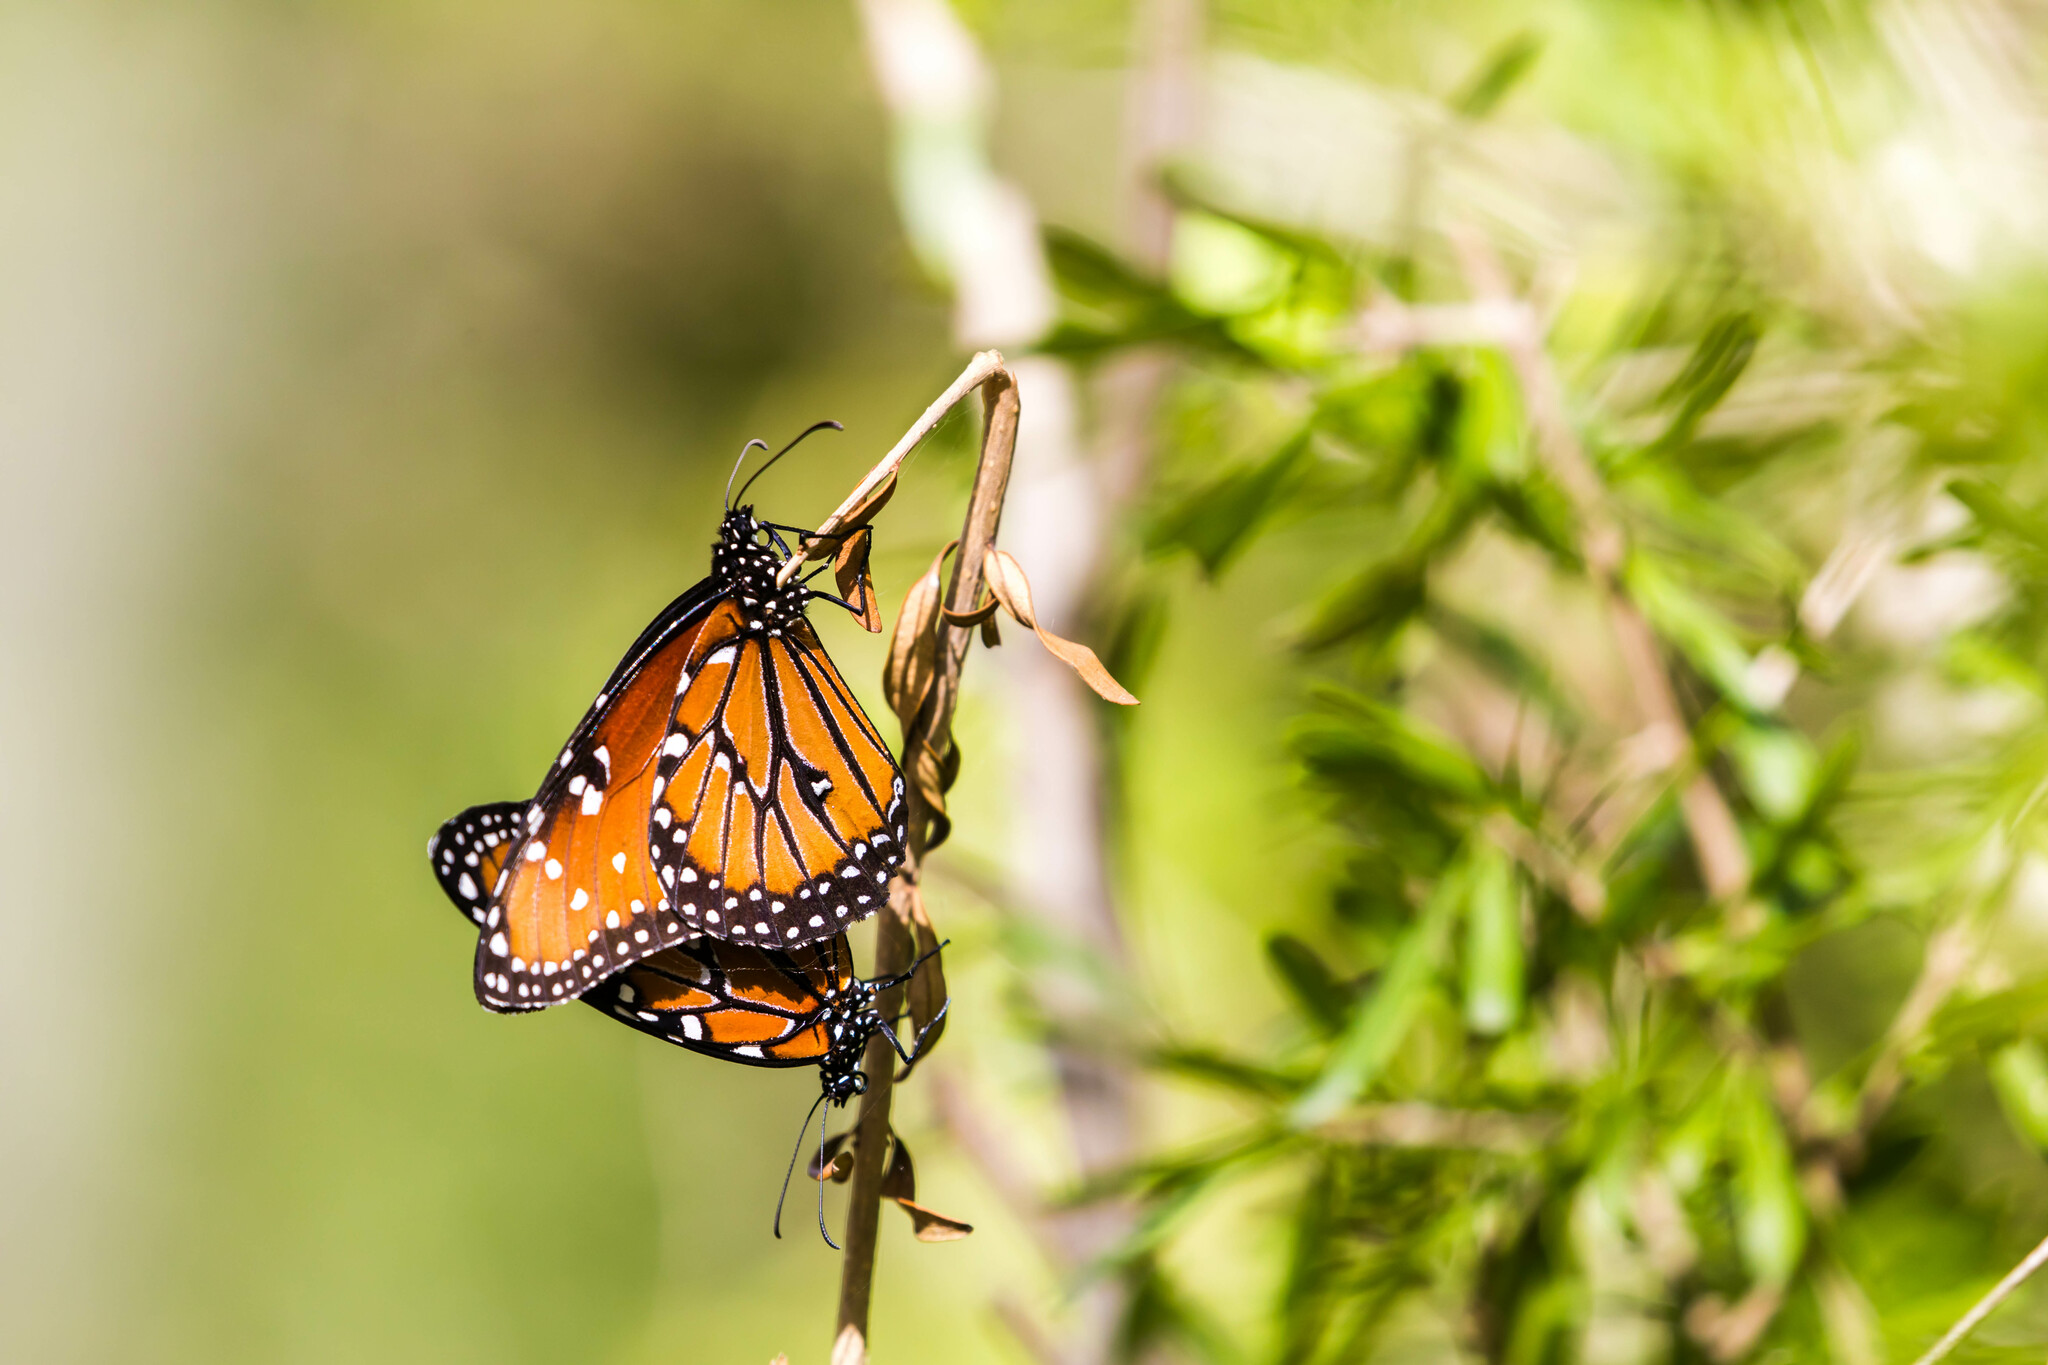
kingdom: Animalia
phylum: Arthropoda
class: Insecta
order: Lepidoptera
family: Nymphalidae
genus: Danaus
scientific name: Danaus gilippus
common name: Queen
